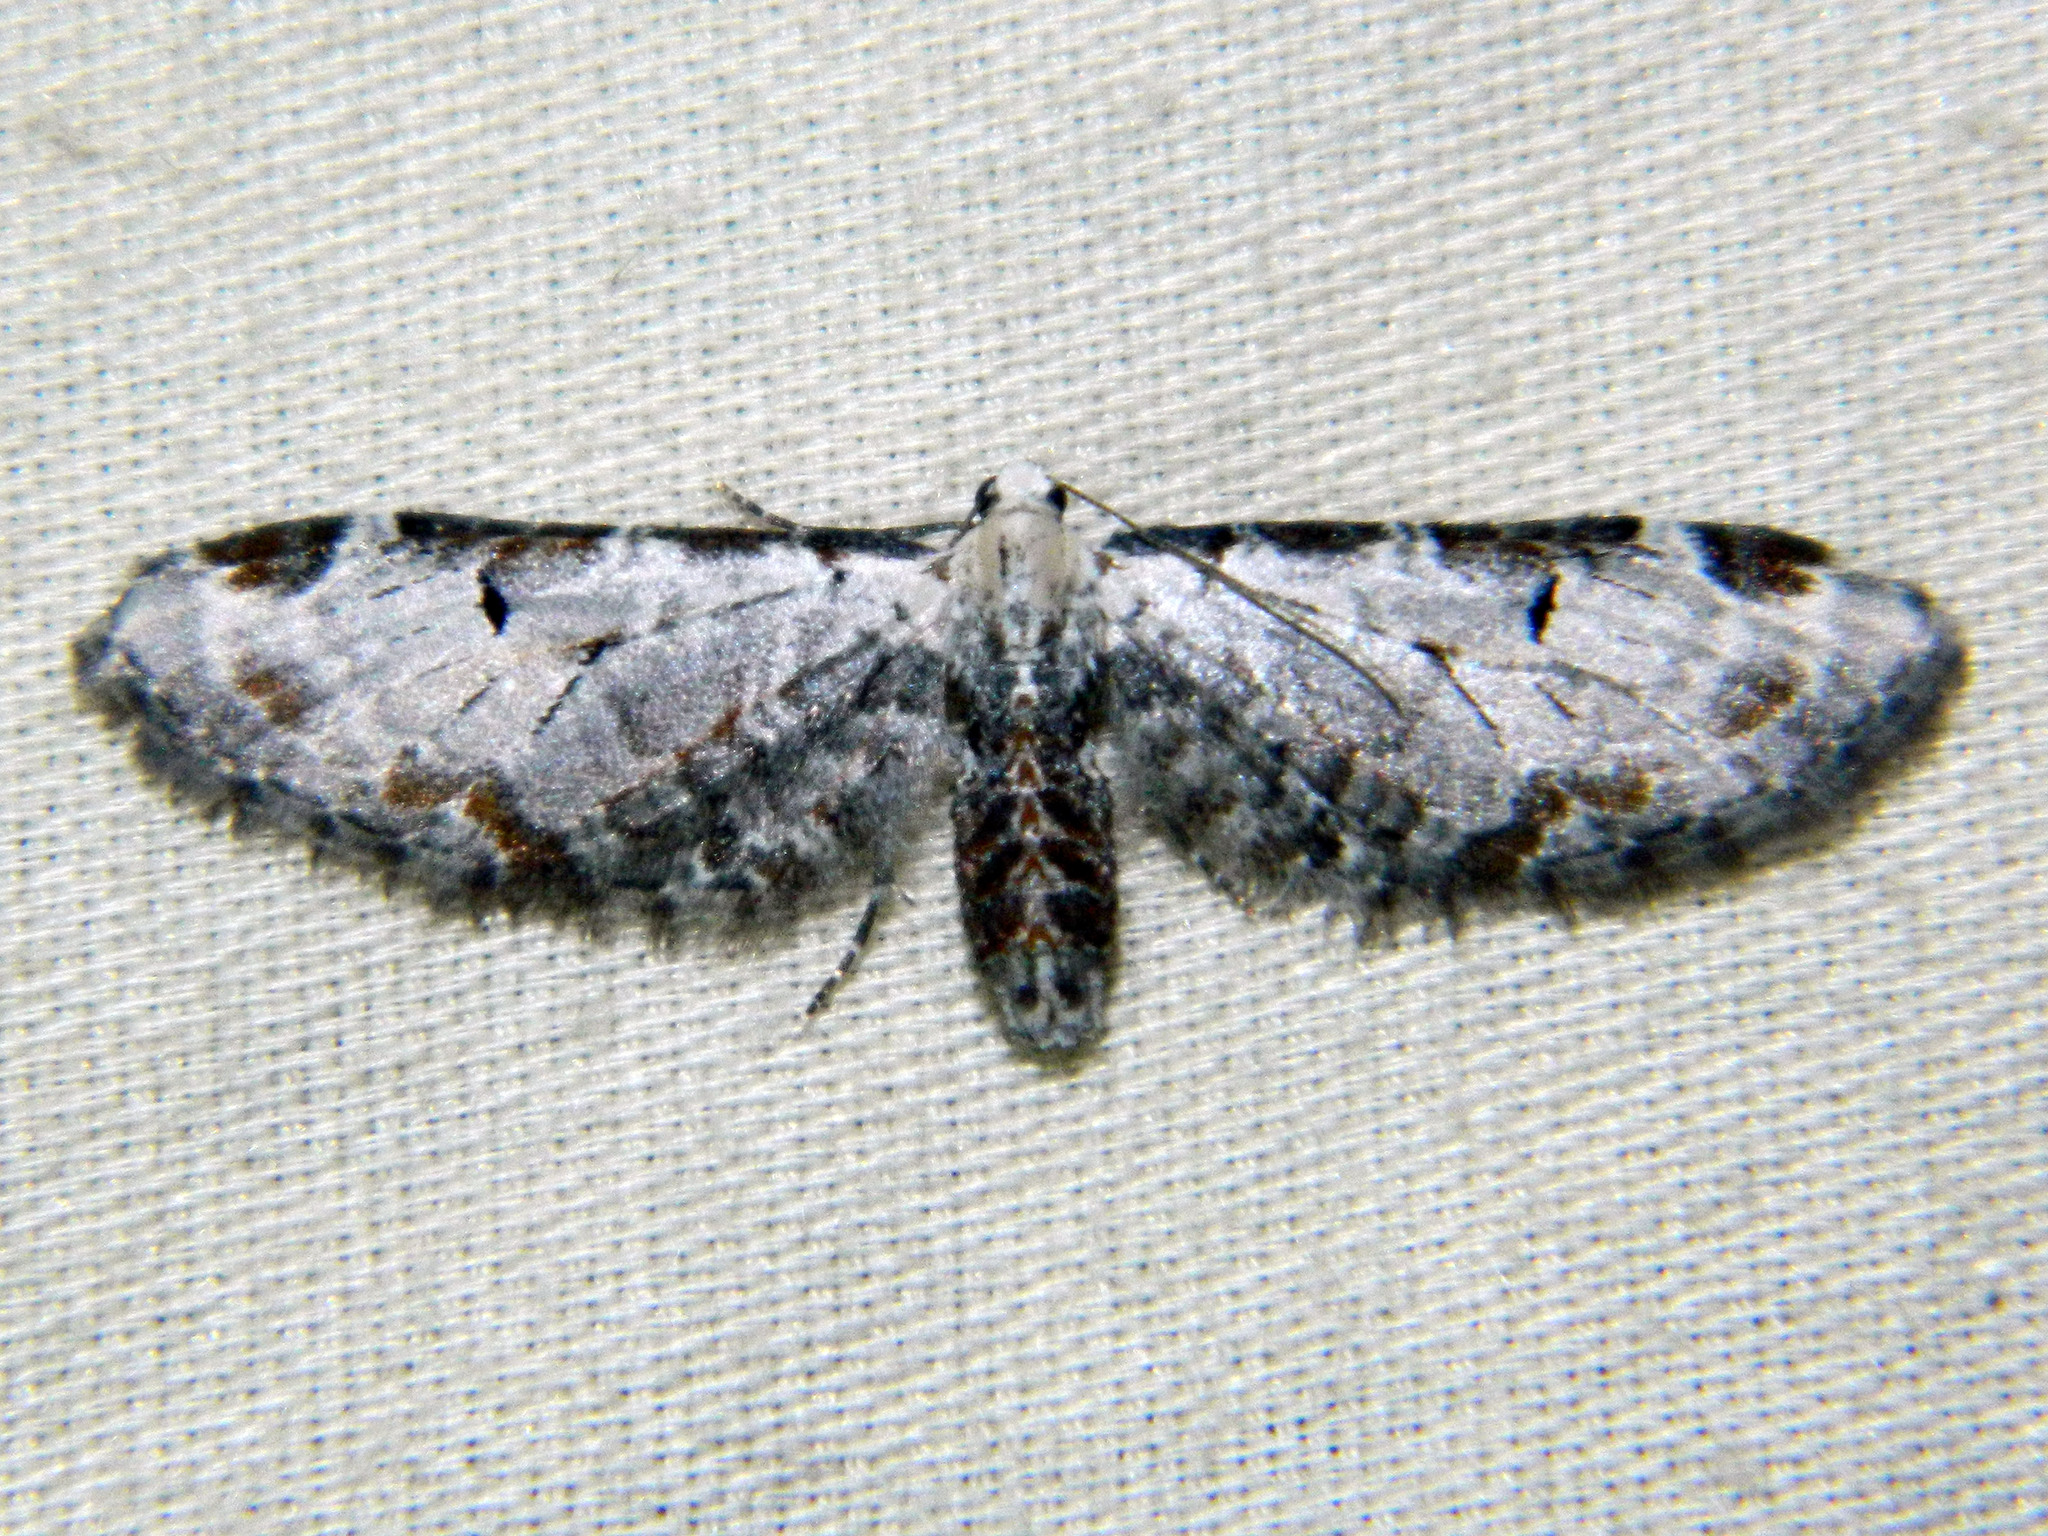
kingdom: Animalia
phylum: Arthropoda
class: Insecta
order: Lepidoptera
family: Geometridae
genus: Eupithecia
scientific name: Eupithecia ravocostaliata
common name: Great varigated pug
